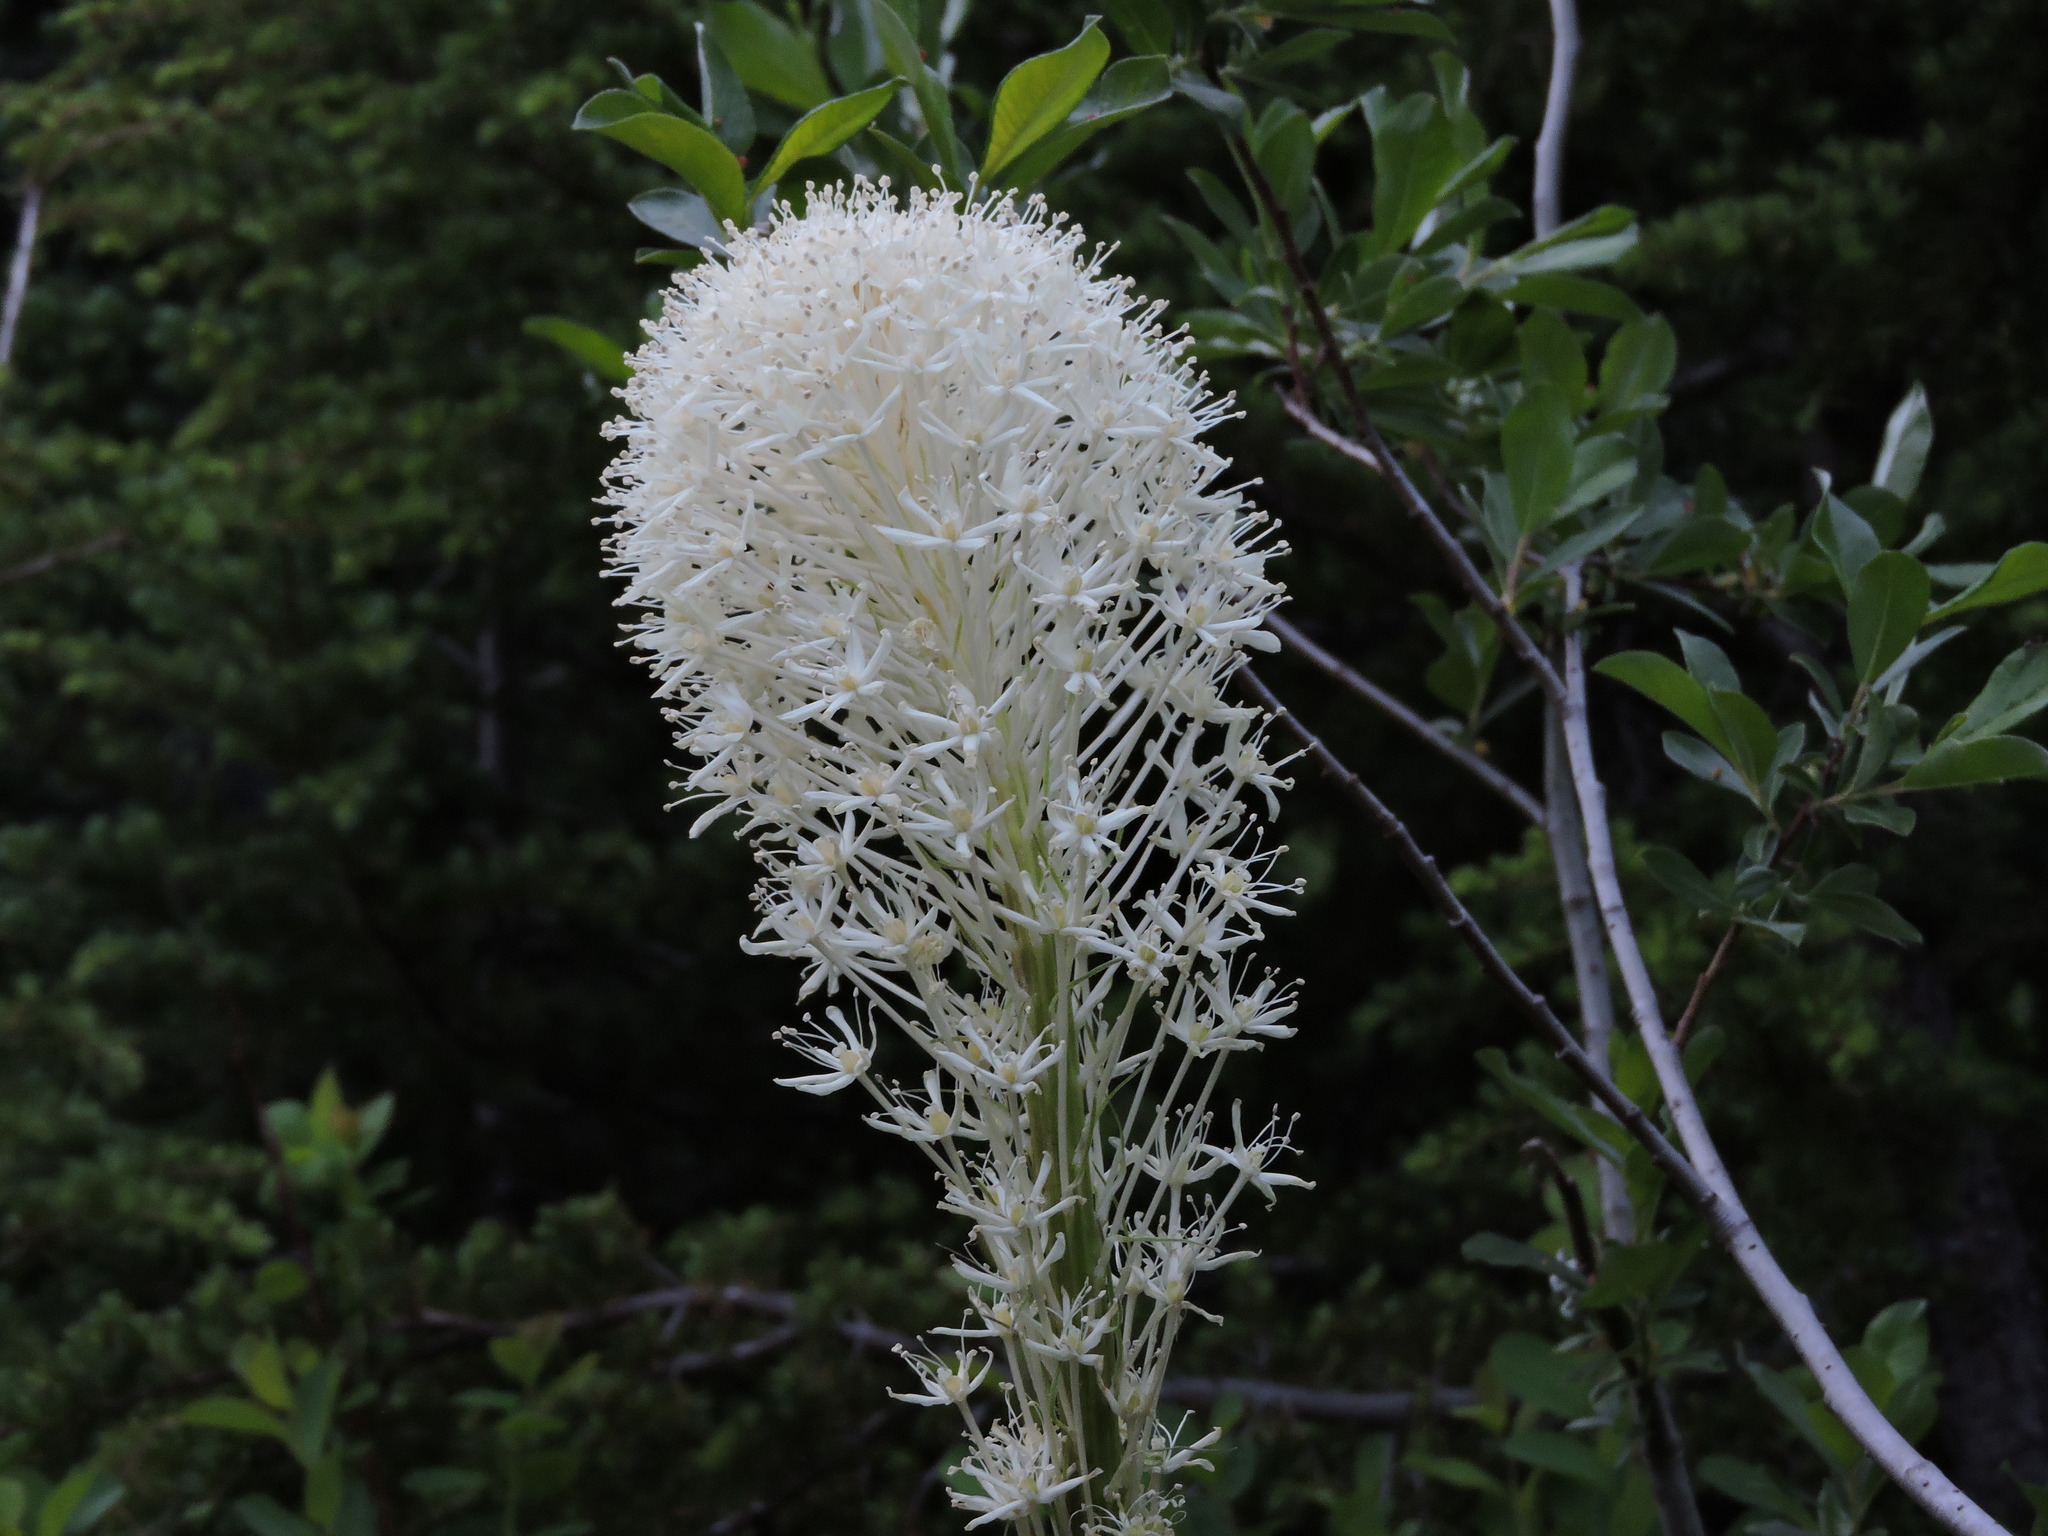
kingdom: Plantae
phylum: Tracheophyta
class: Liliopsida
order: Liliales
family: Melanthiaceae
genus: Xerophyllum
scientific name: Xerophyllum tenax
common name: Bear-grass
